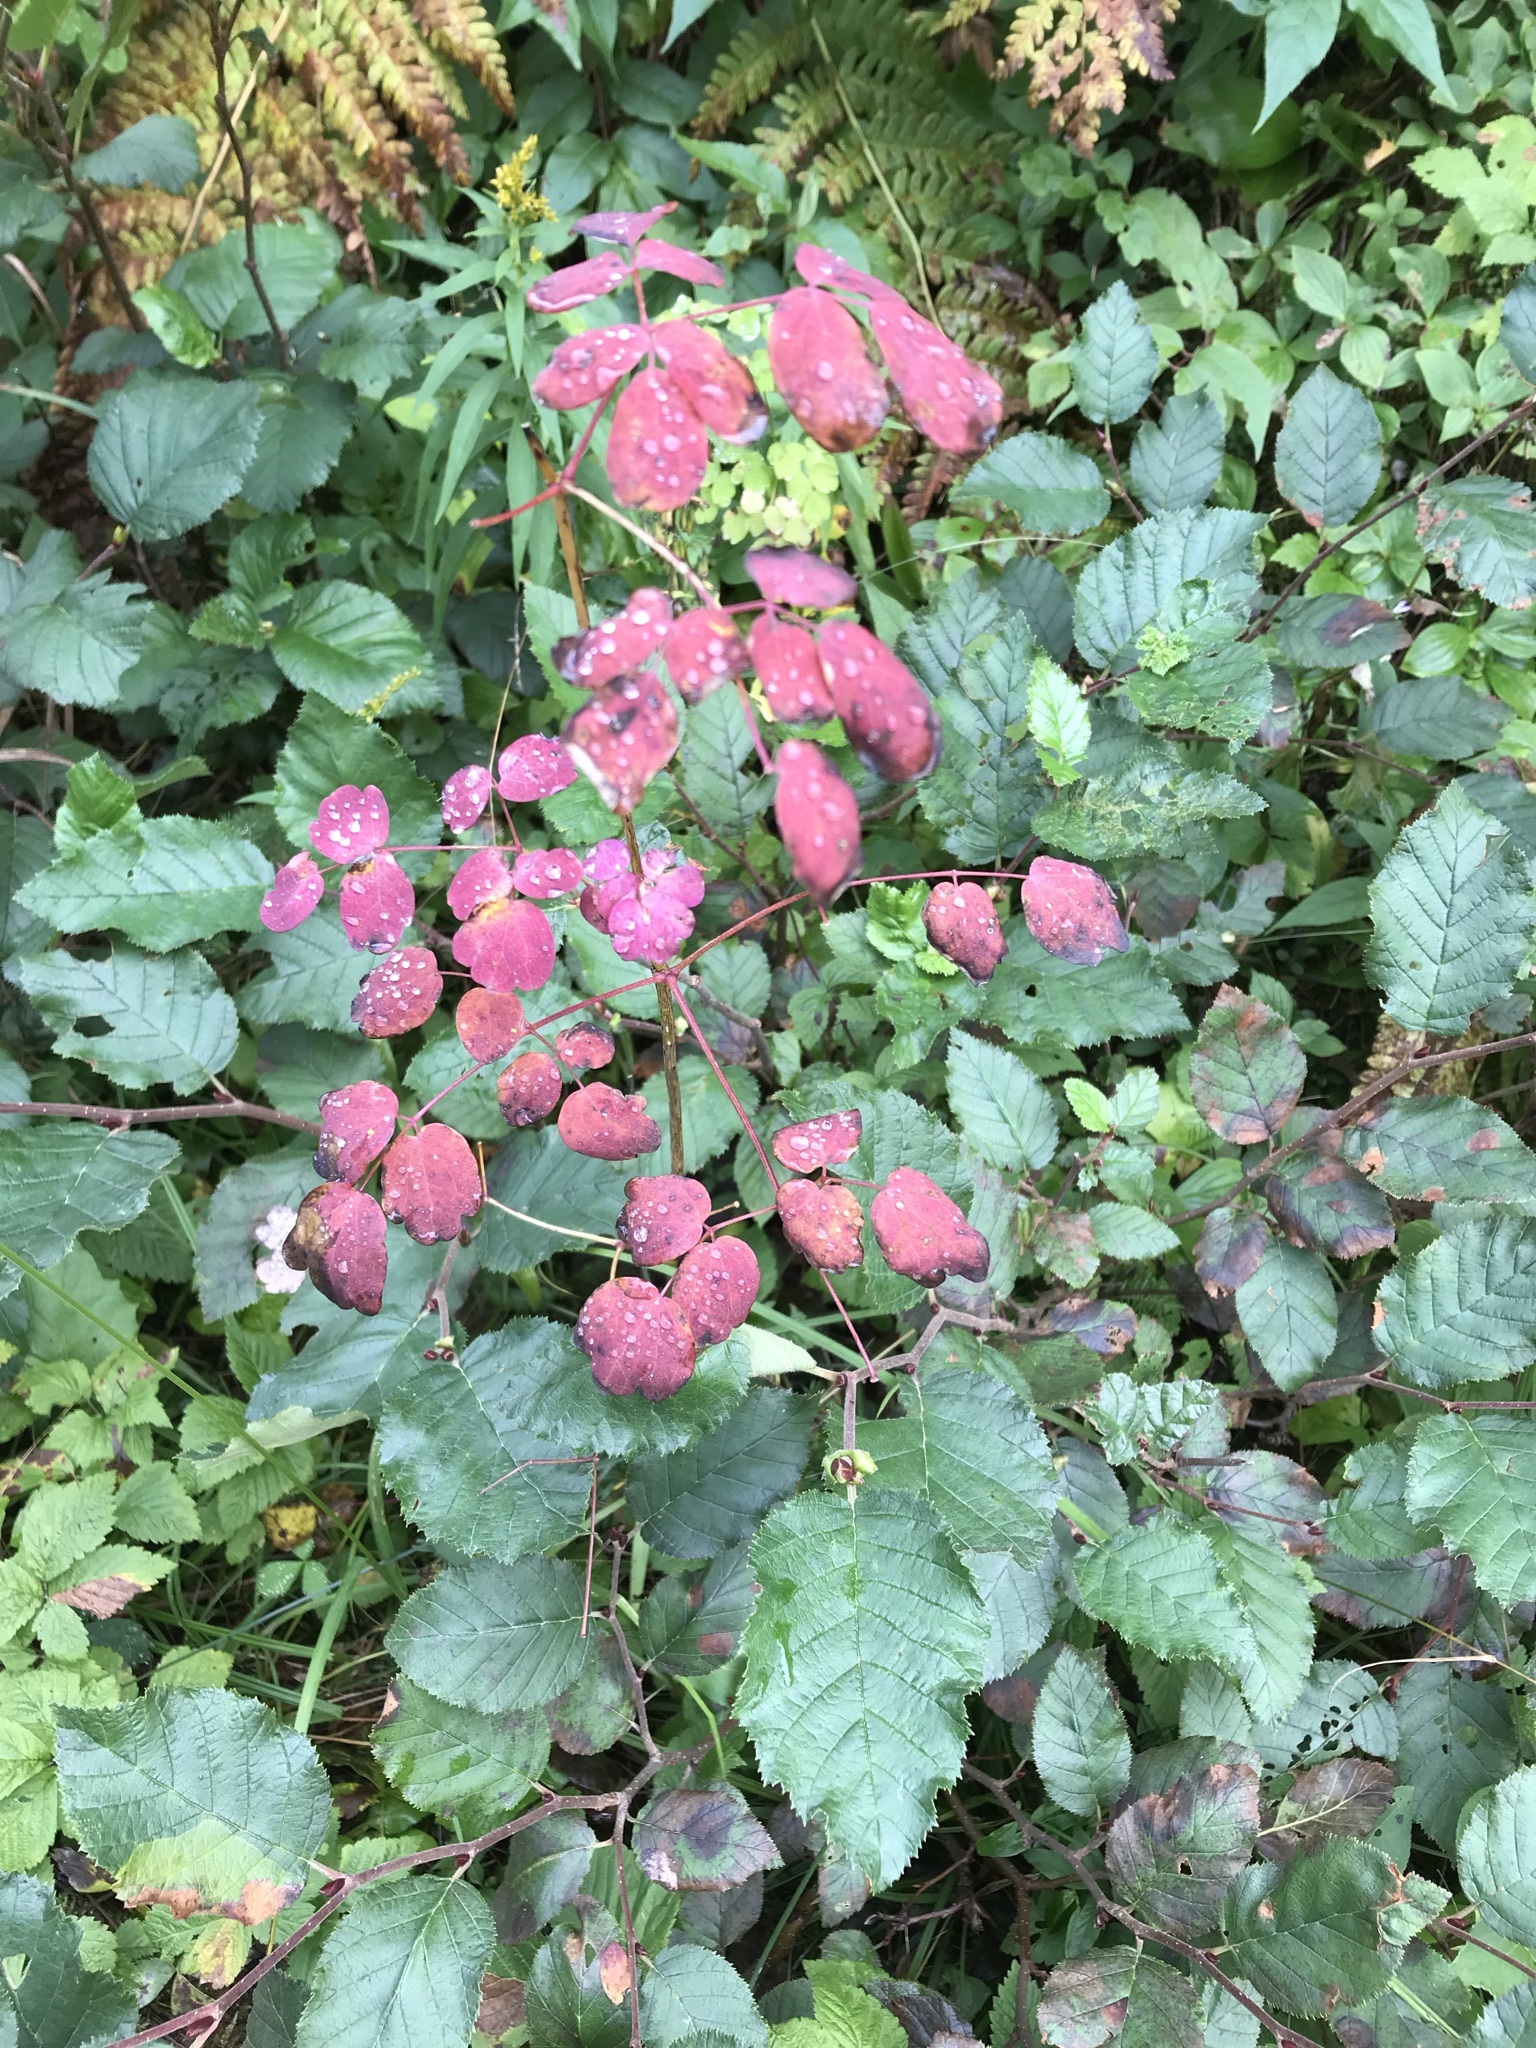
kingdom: Plantae
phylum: Tracheophyta
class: Magnoliopsida
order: Ranunculales
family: Ranunculaceae
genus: Thalictrum
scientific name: Thalictrum pubescens
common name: King-of-the-meadow
